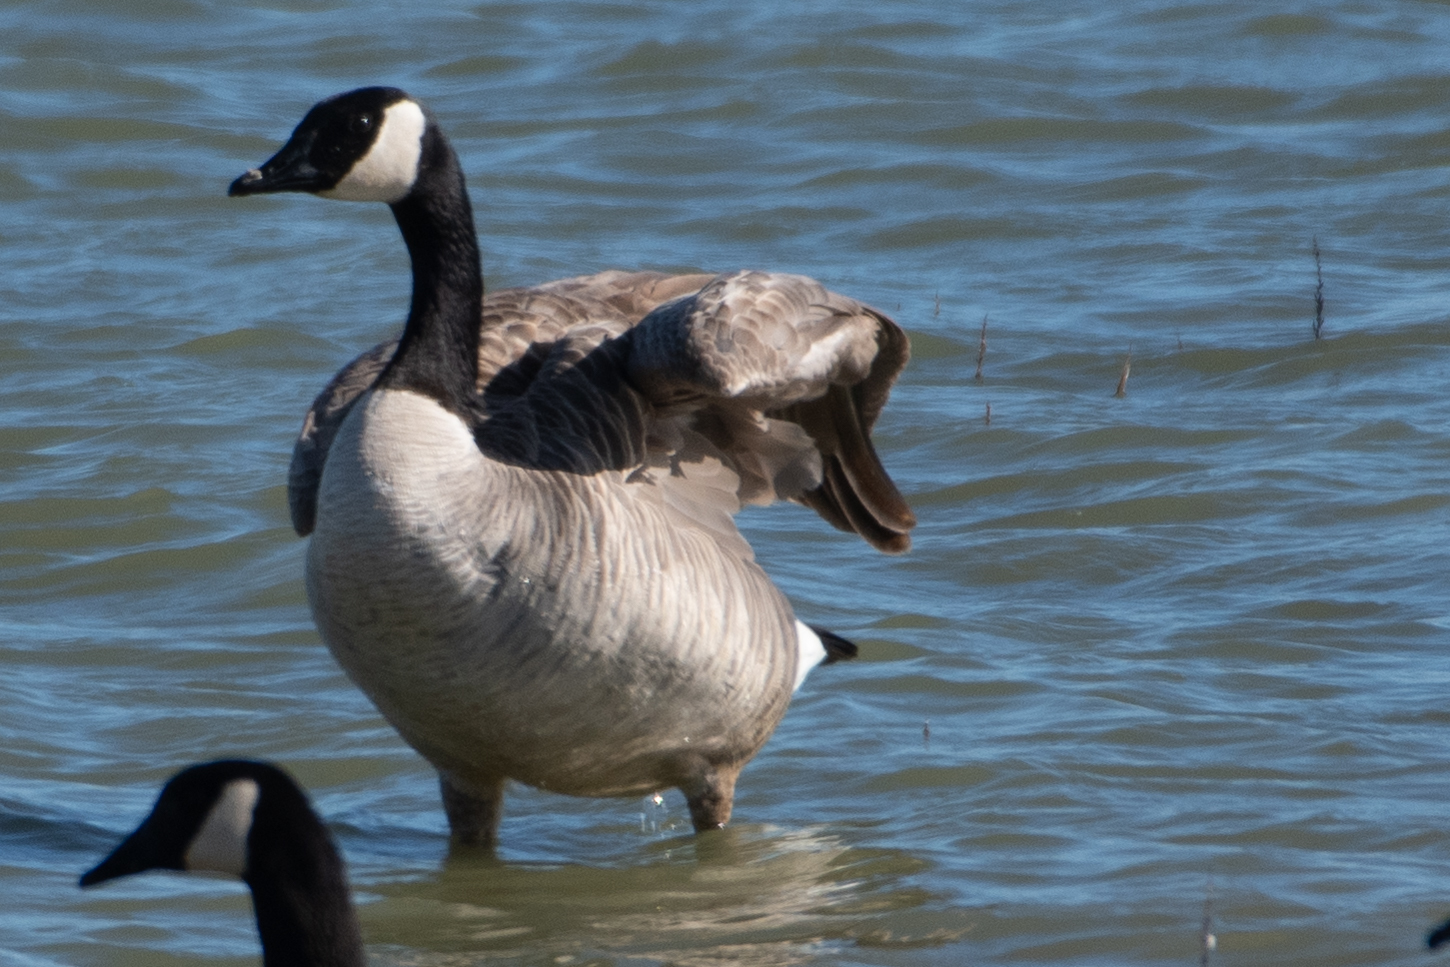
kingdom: Animalia
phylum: Chordata
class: Aves
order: Anseriformes
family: Anatidae
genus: Branta
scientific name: Branta canadensis
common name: Canada goose
